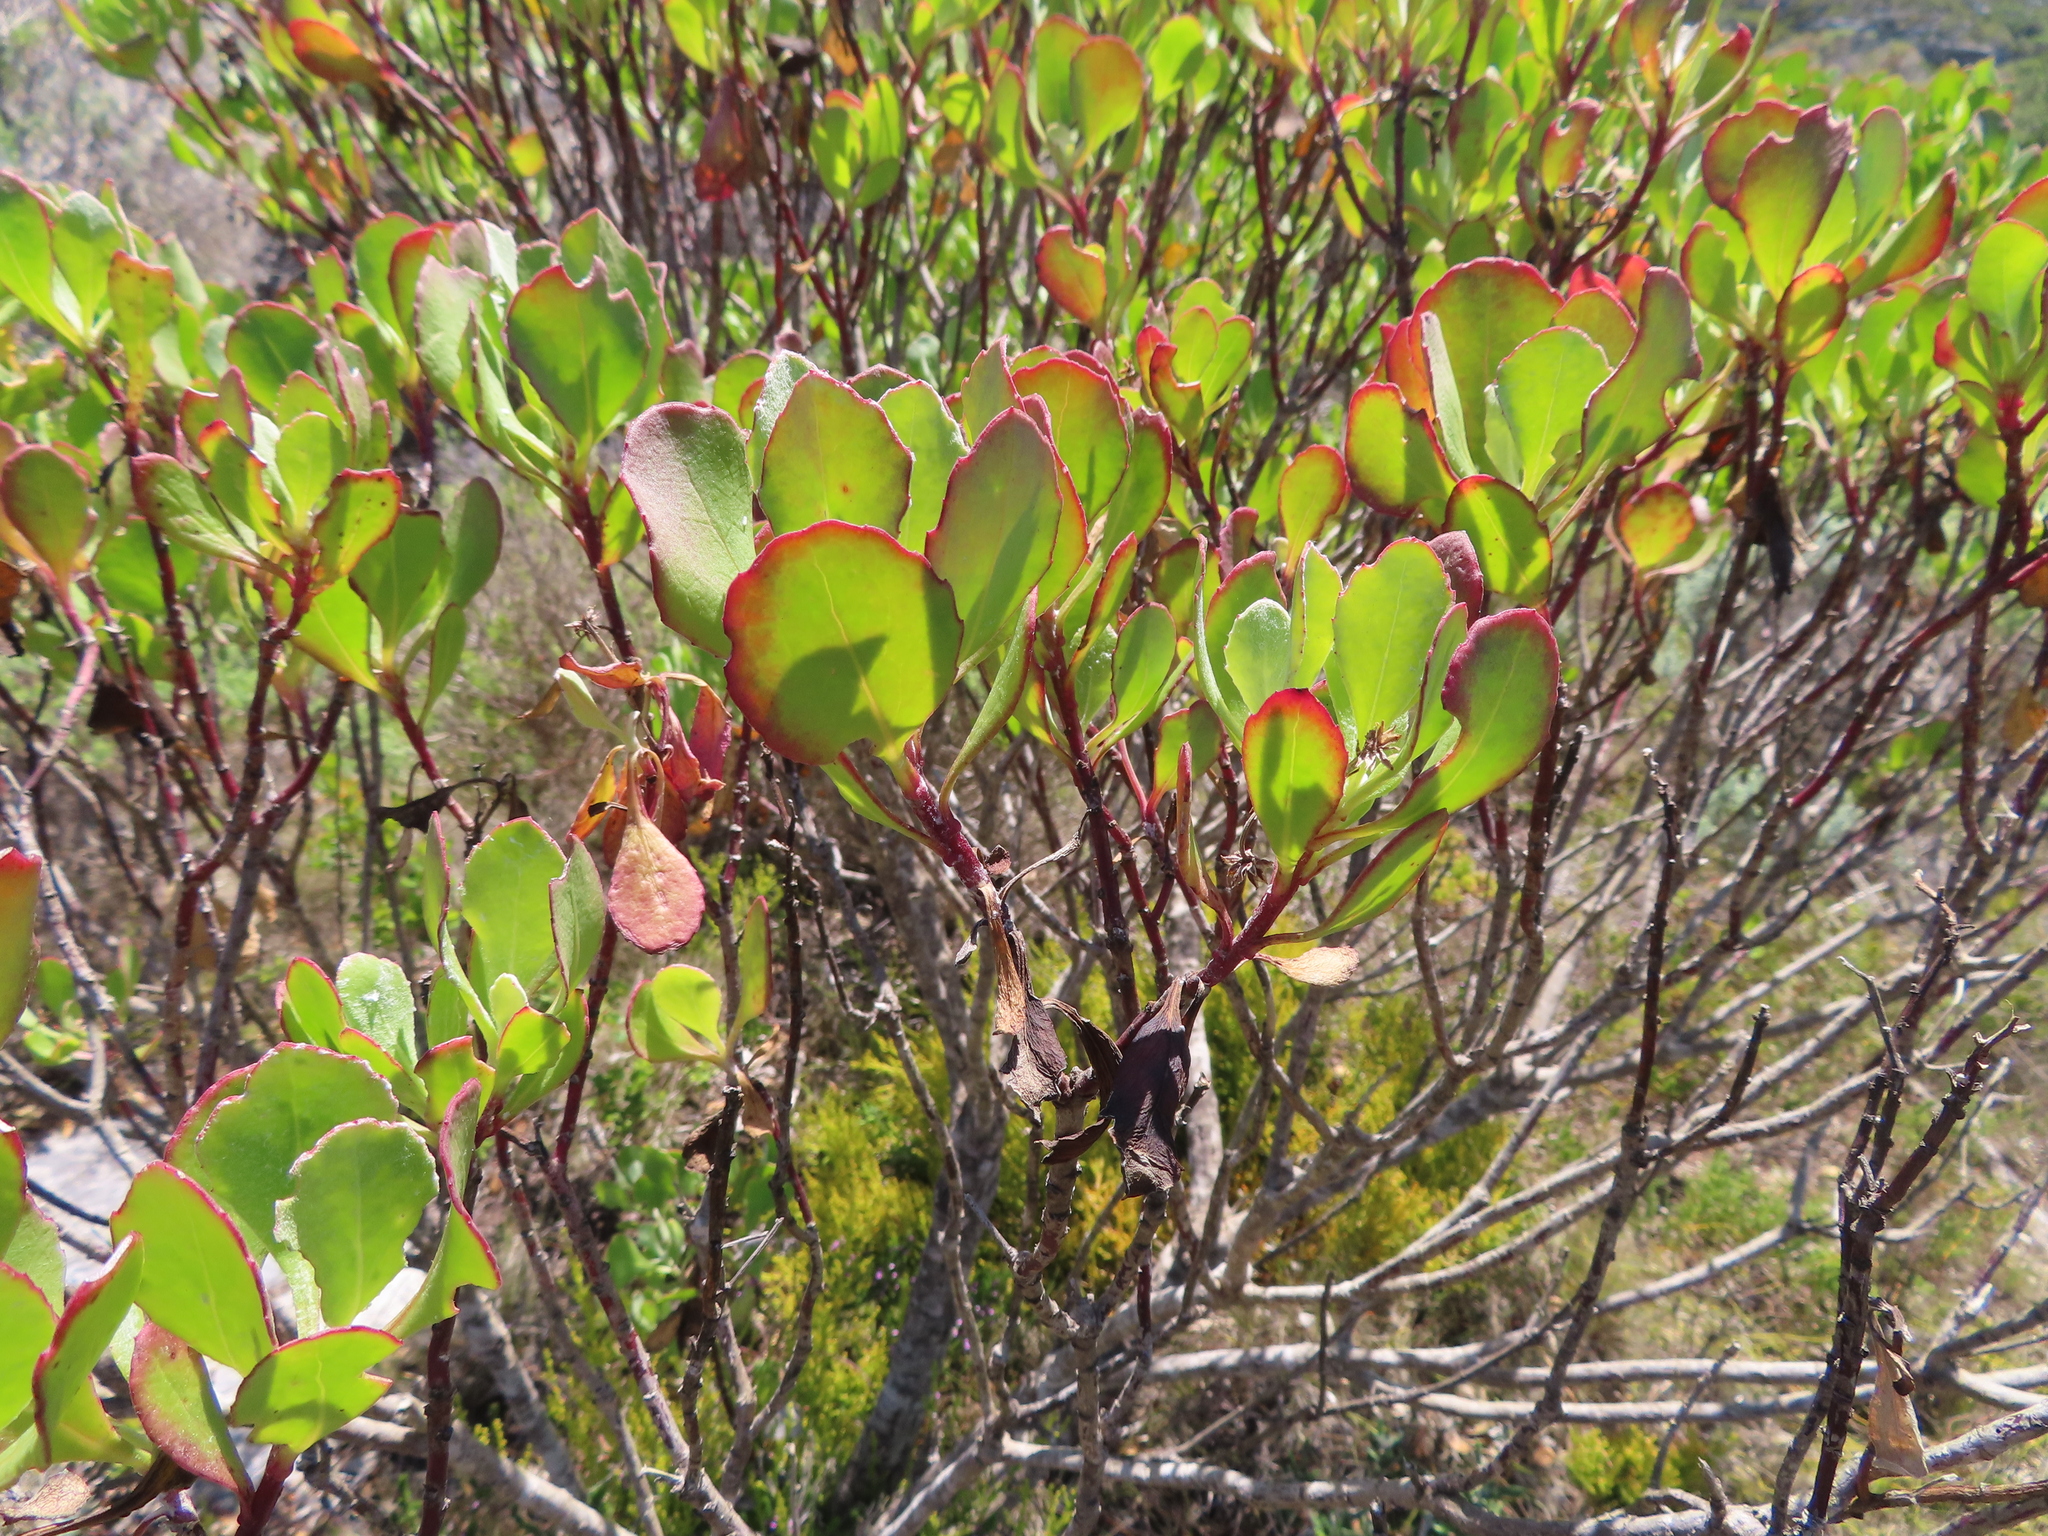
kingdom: Plantae
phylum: Tracheophyta
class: Magnoliopsida
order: Asterales
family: Asteraceae
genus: Osteospermum
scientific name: Osteospermum moniliferum
